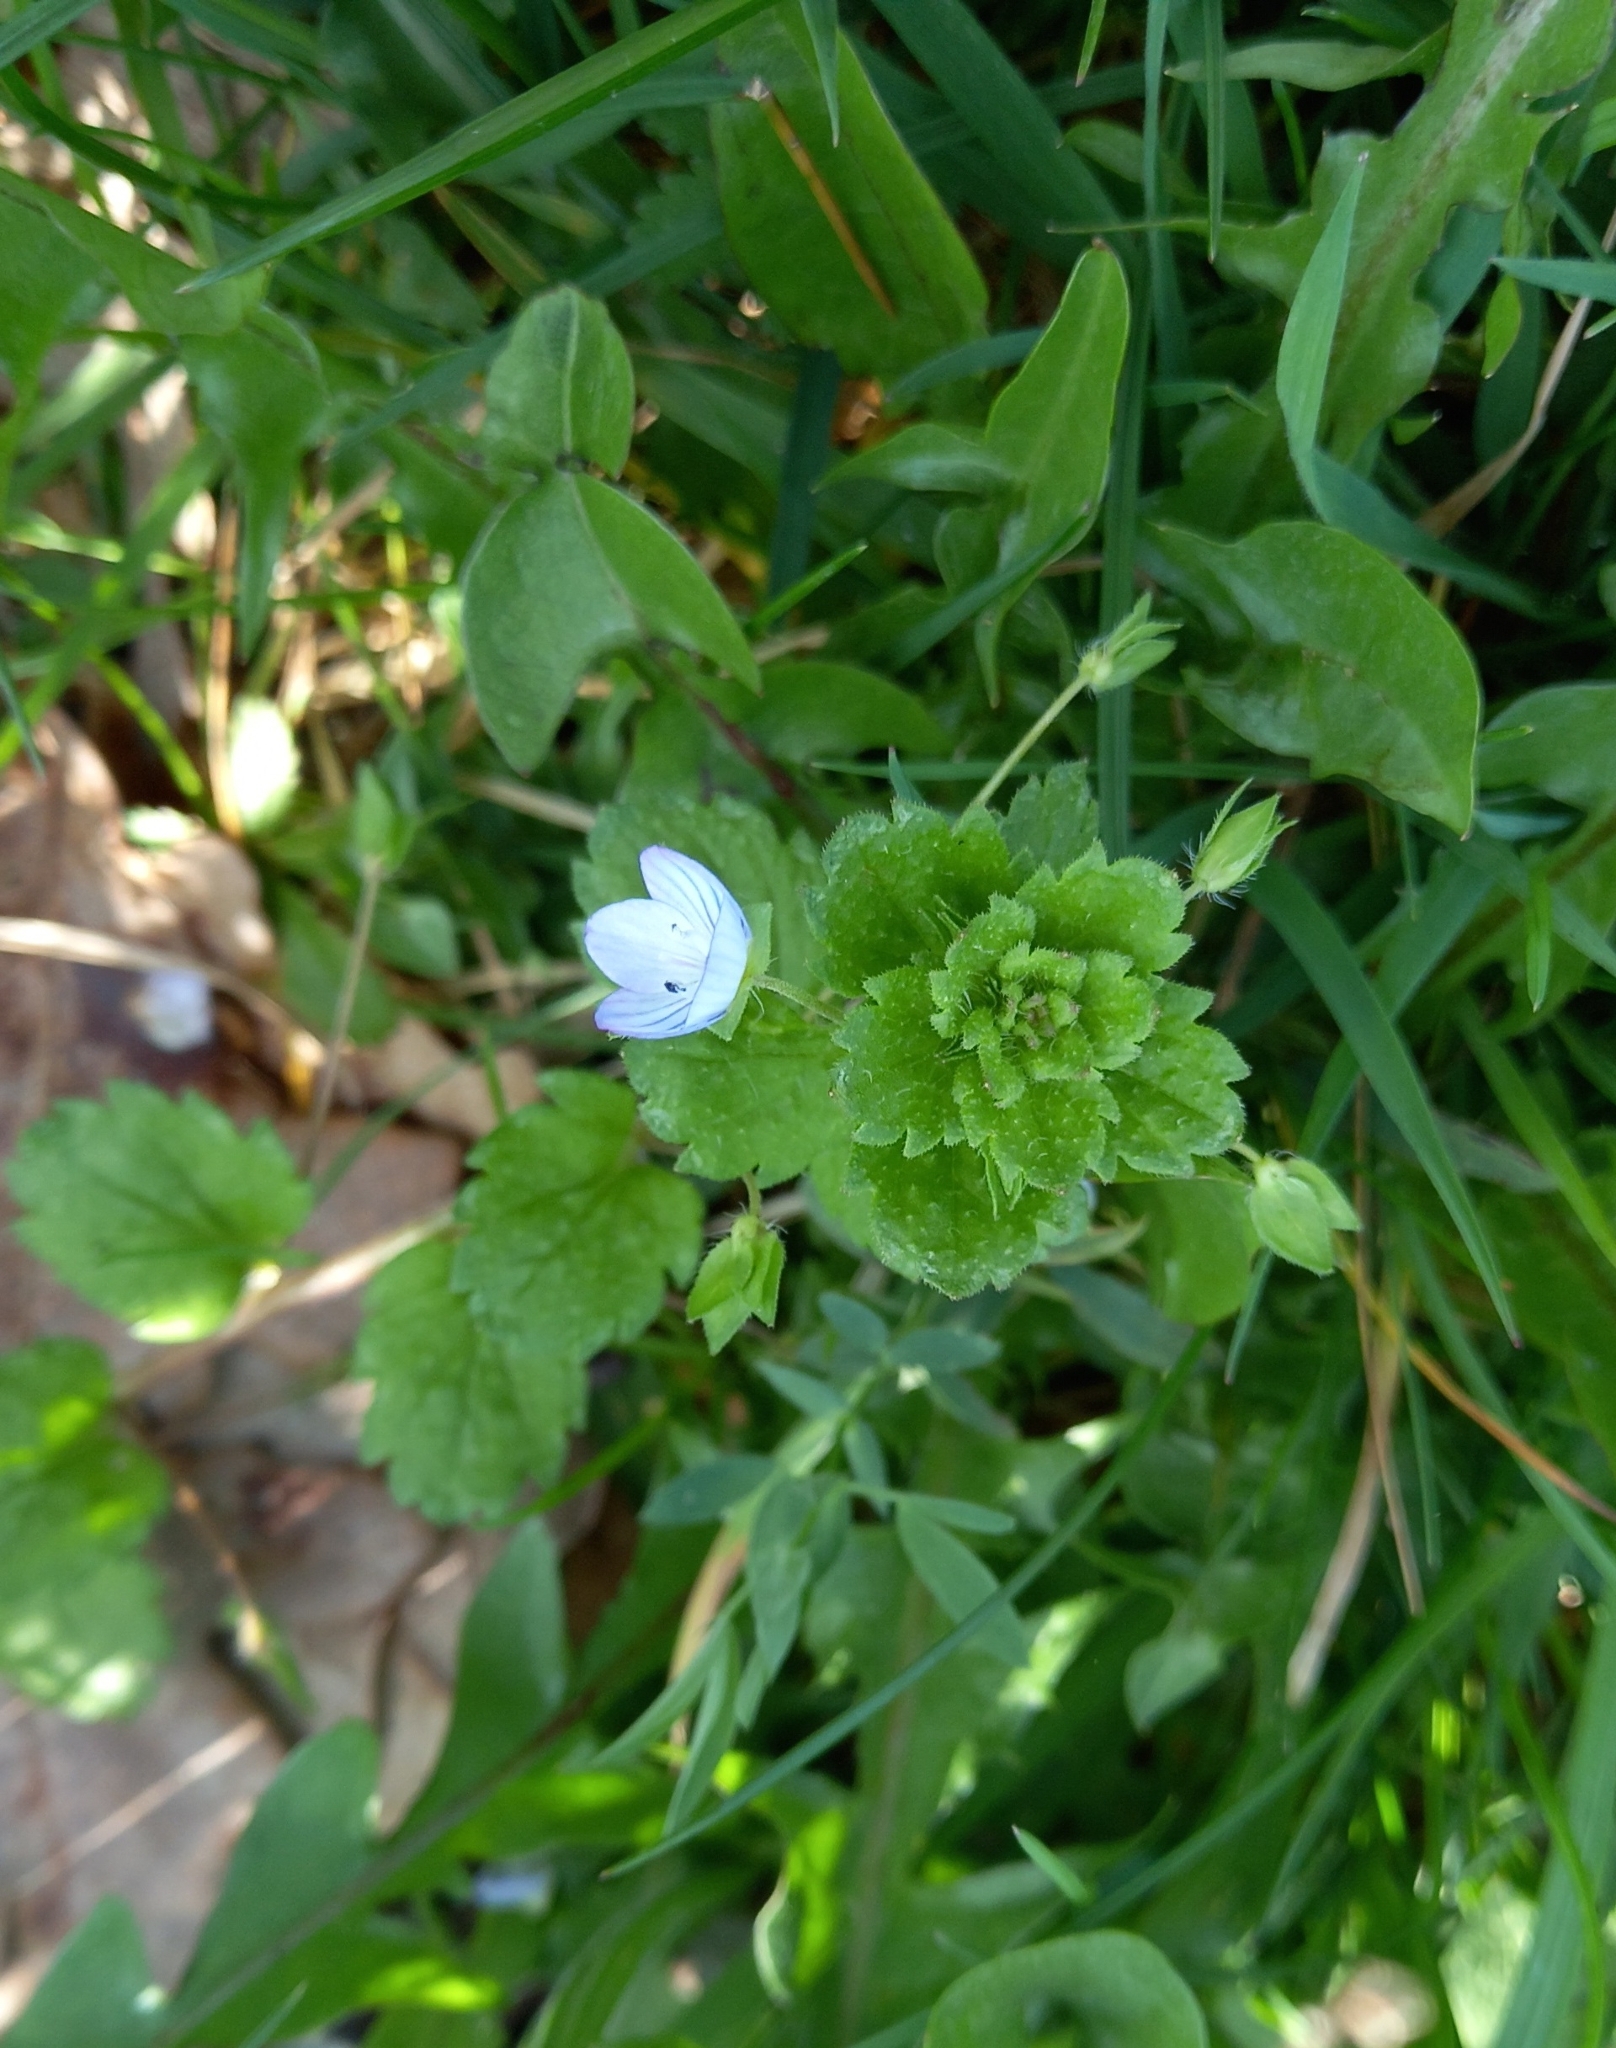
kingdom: Plantae
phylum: Tracheophyta
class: Magnoliopsida
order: Lamiales
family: Plantaginaceae
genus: Veronica
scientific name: Veronica persica
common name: Common field-speedwell
